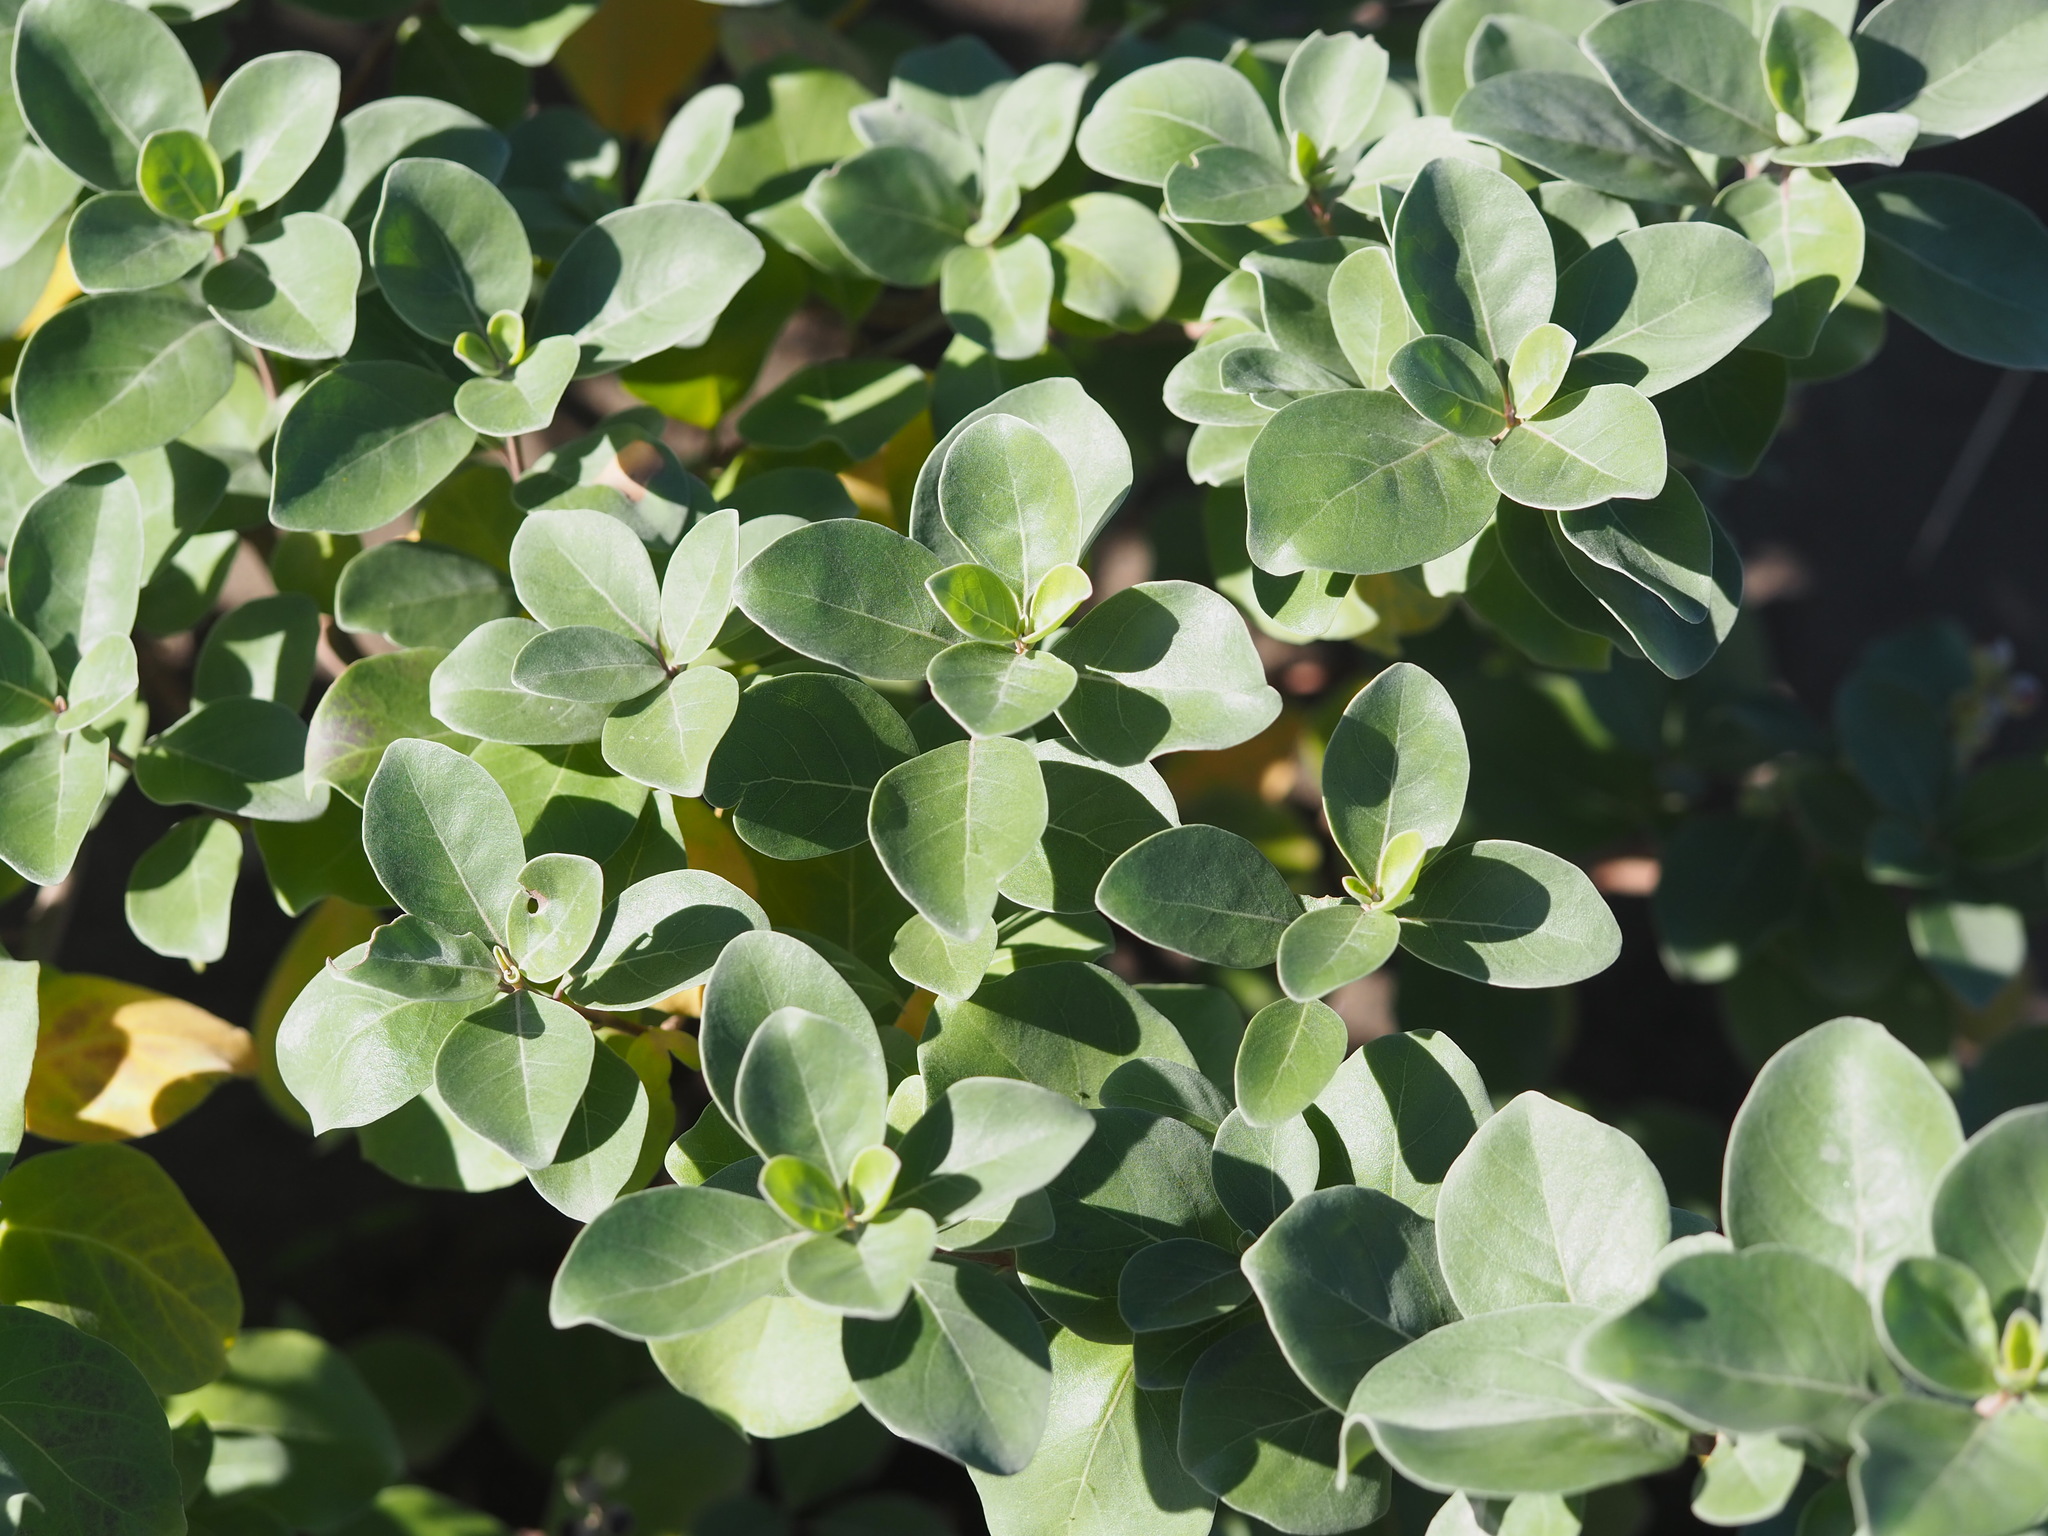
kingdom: Plantae
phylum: Tracheophyta
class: Magnoliopsida
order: Lamiales
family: Lamiaceae
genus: Vitex
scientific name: Vitex rotundifolia
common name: Beach vitex
